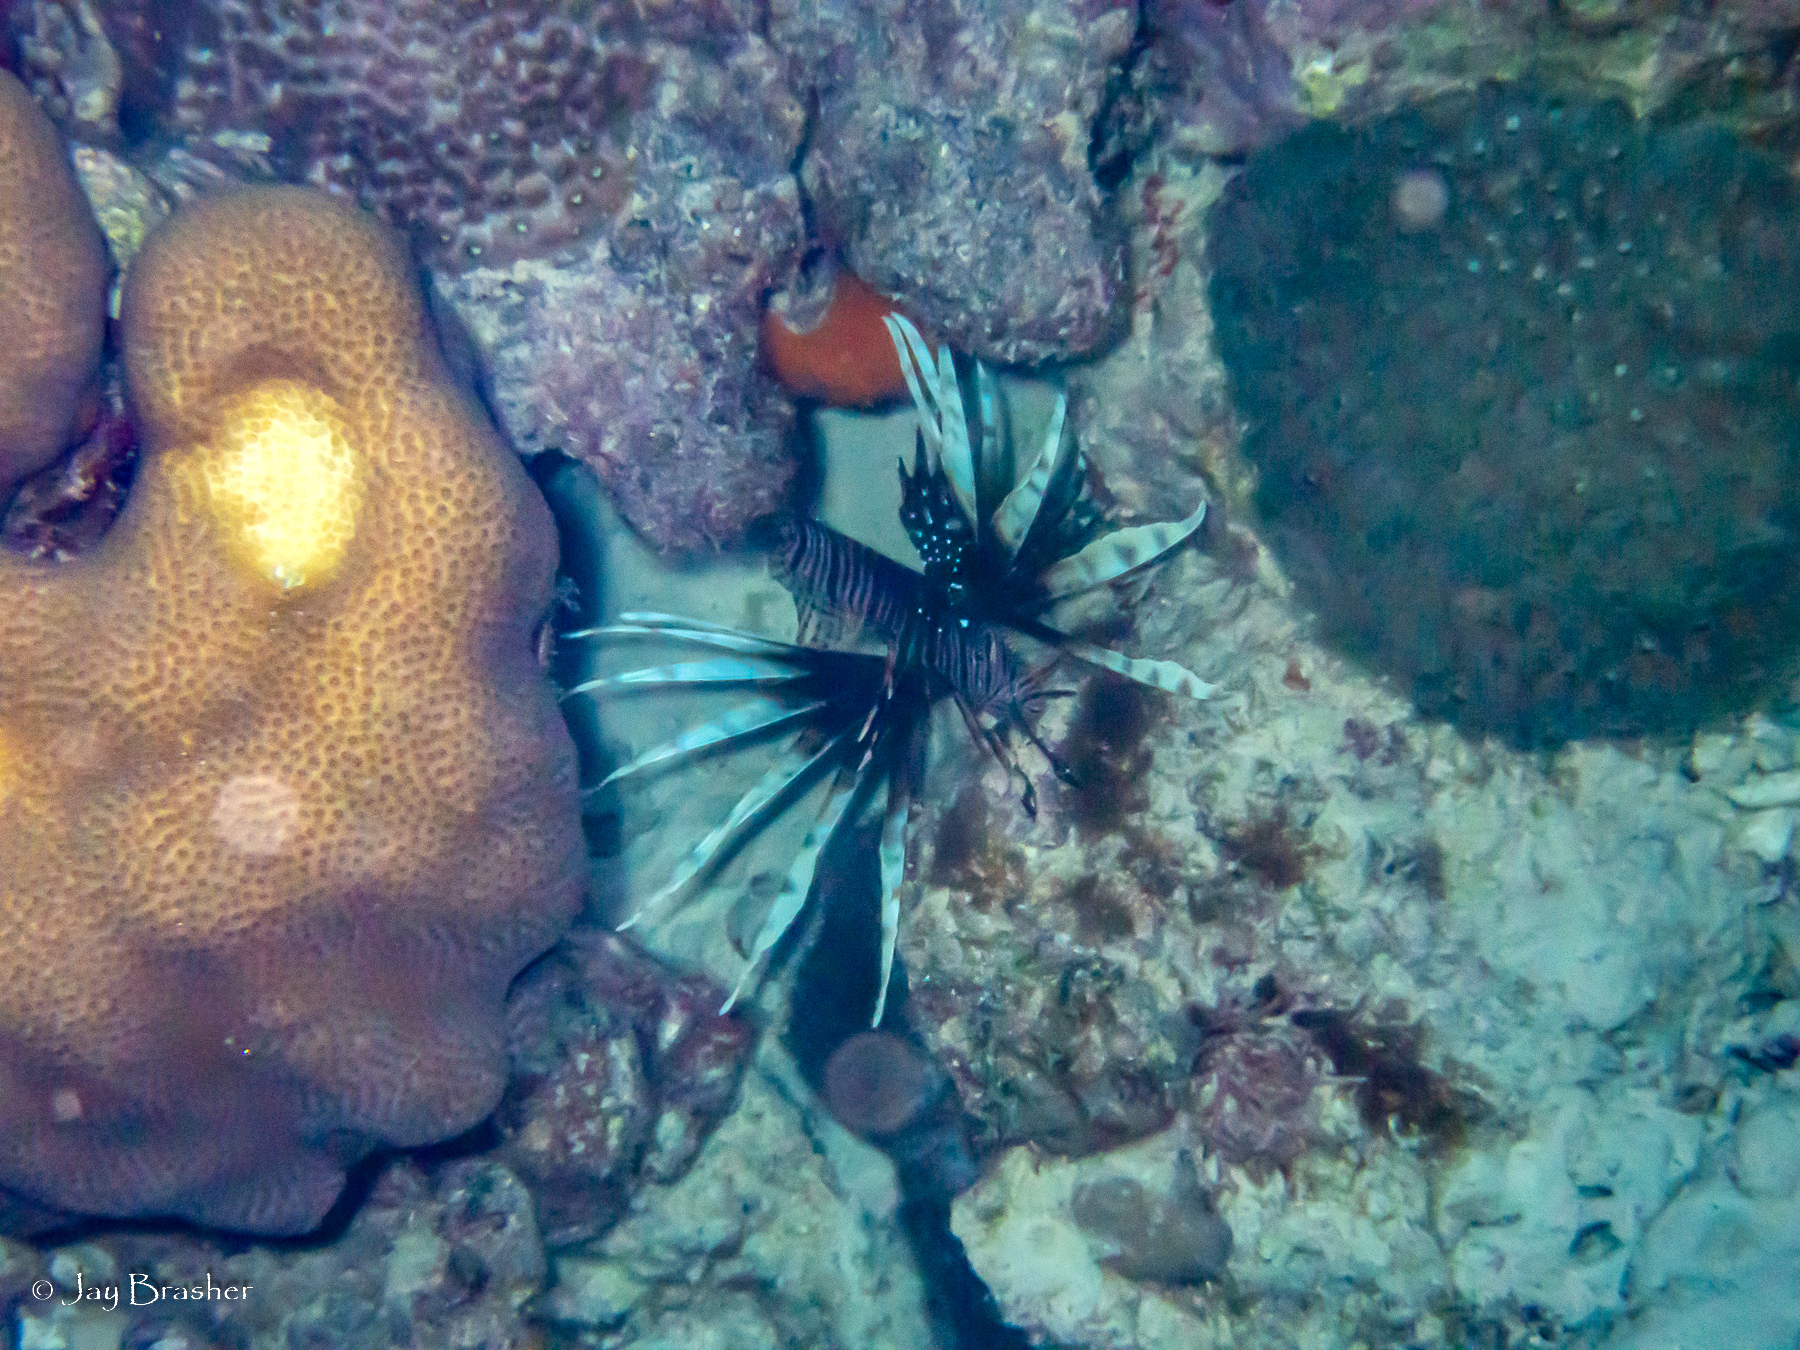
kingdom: Animalia
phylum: Chordata
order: Scorpaeniformes
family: Scorpaenidae
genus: Pterois
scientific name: Pterois volitans
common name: Lionfish
